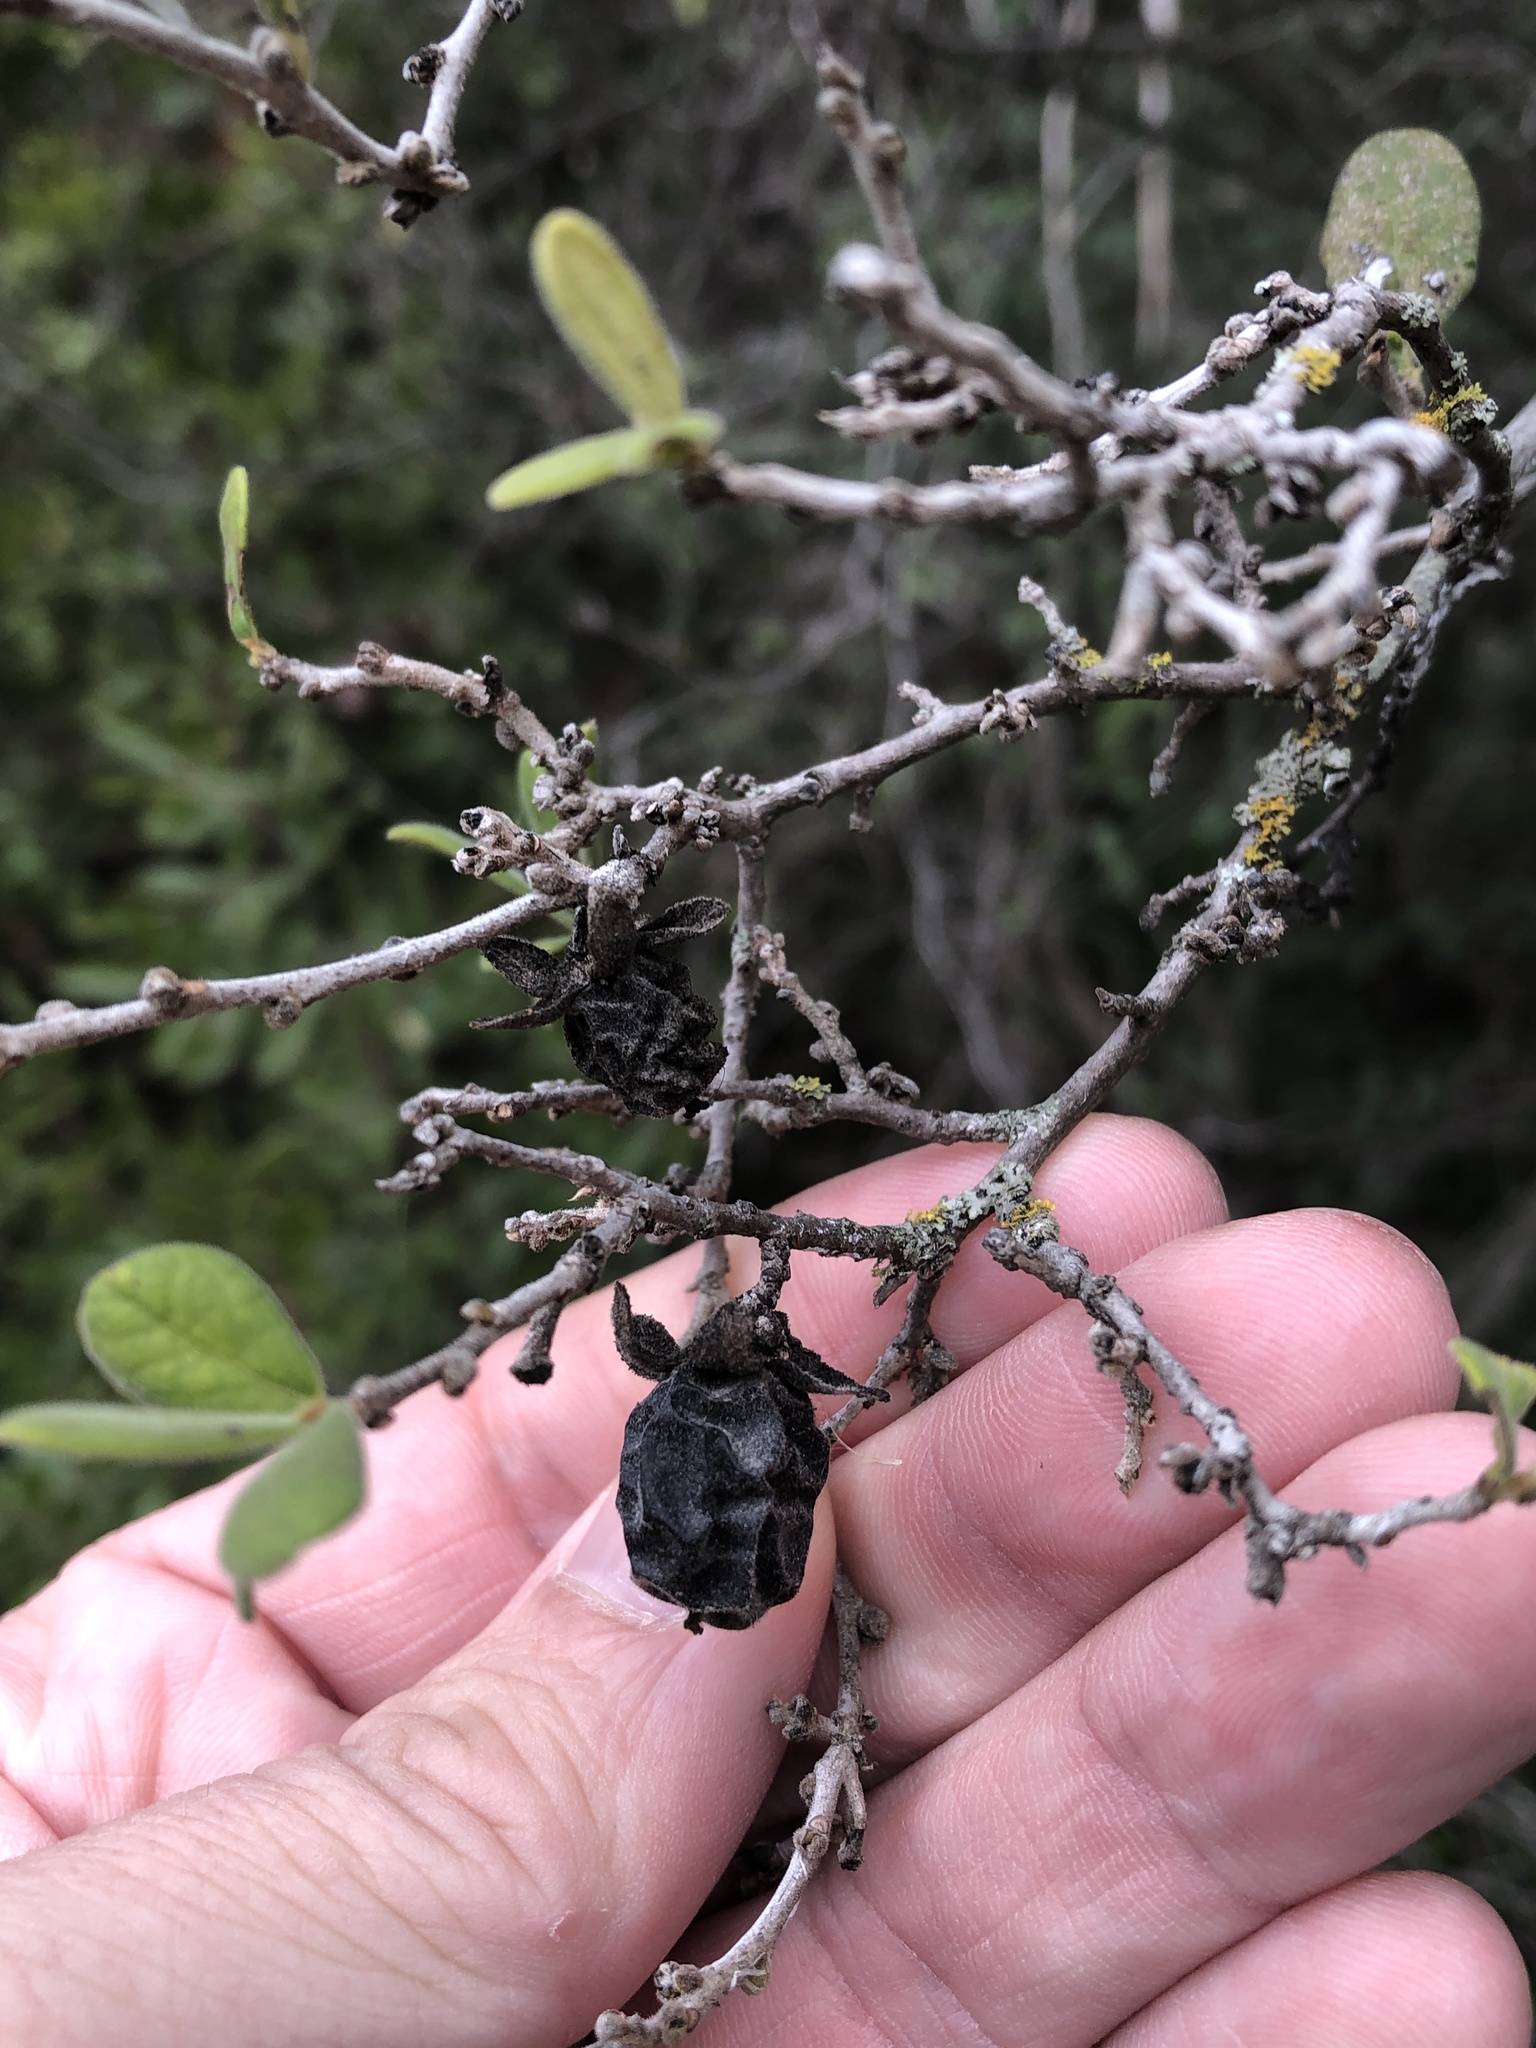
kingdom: Plantae
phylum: Tracheophyta
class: Magnoliopsida
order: Ericales
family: Ebenaceae
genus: Diospyros
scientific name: Diospyros texana
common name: Texas persimmon
